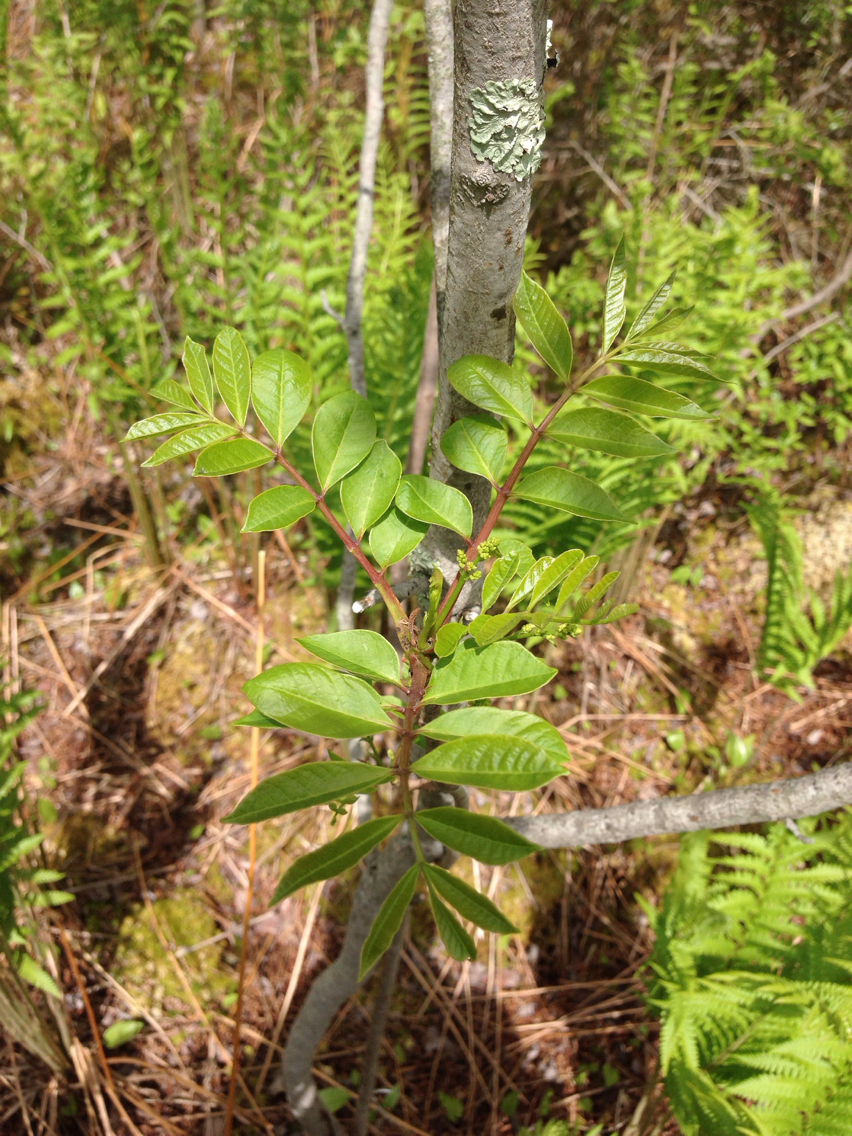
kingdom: Plantae
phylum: Tracheophyta
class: Magnoliopsida
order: Sapindales
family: Anacardiaceae
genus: Toxicodendron
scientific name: Toxicodendron vernix
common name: Poison sumac
